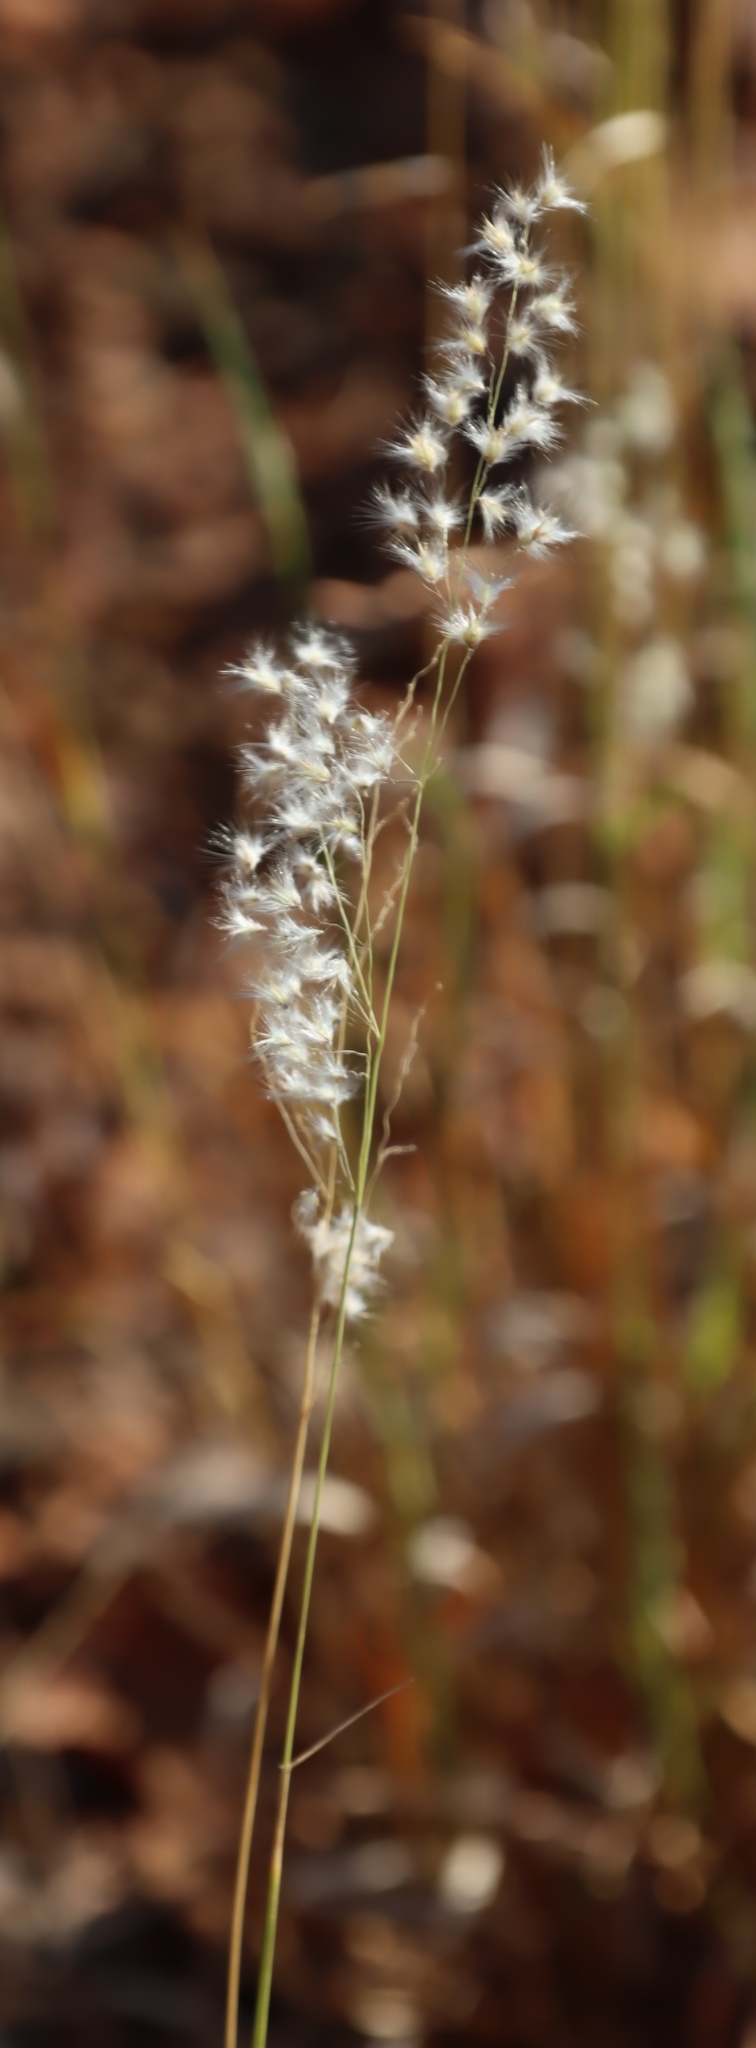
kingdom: Plantae
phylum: Tracheophyta
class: Liliopsida
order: Poales
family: Poaceae
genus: Melinis
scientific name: Melinis repens
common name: Rose natal grass
